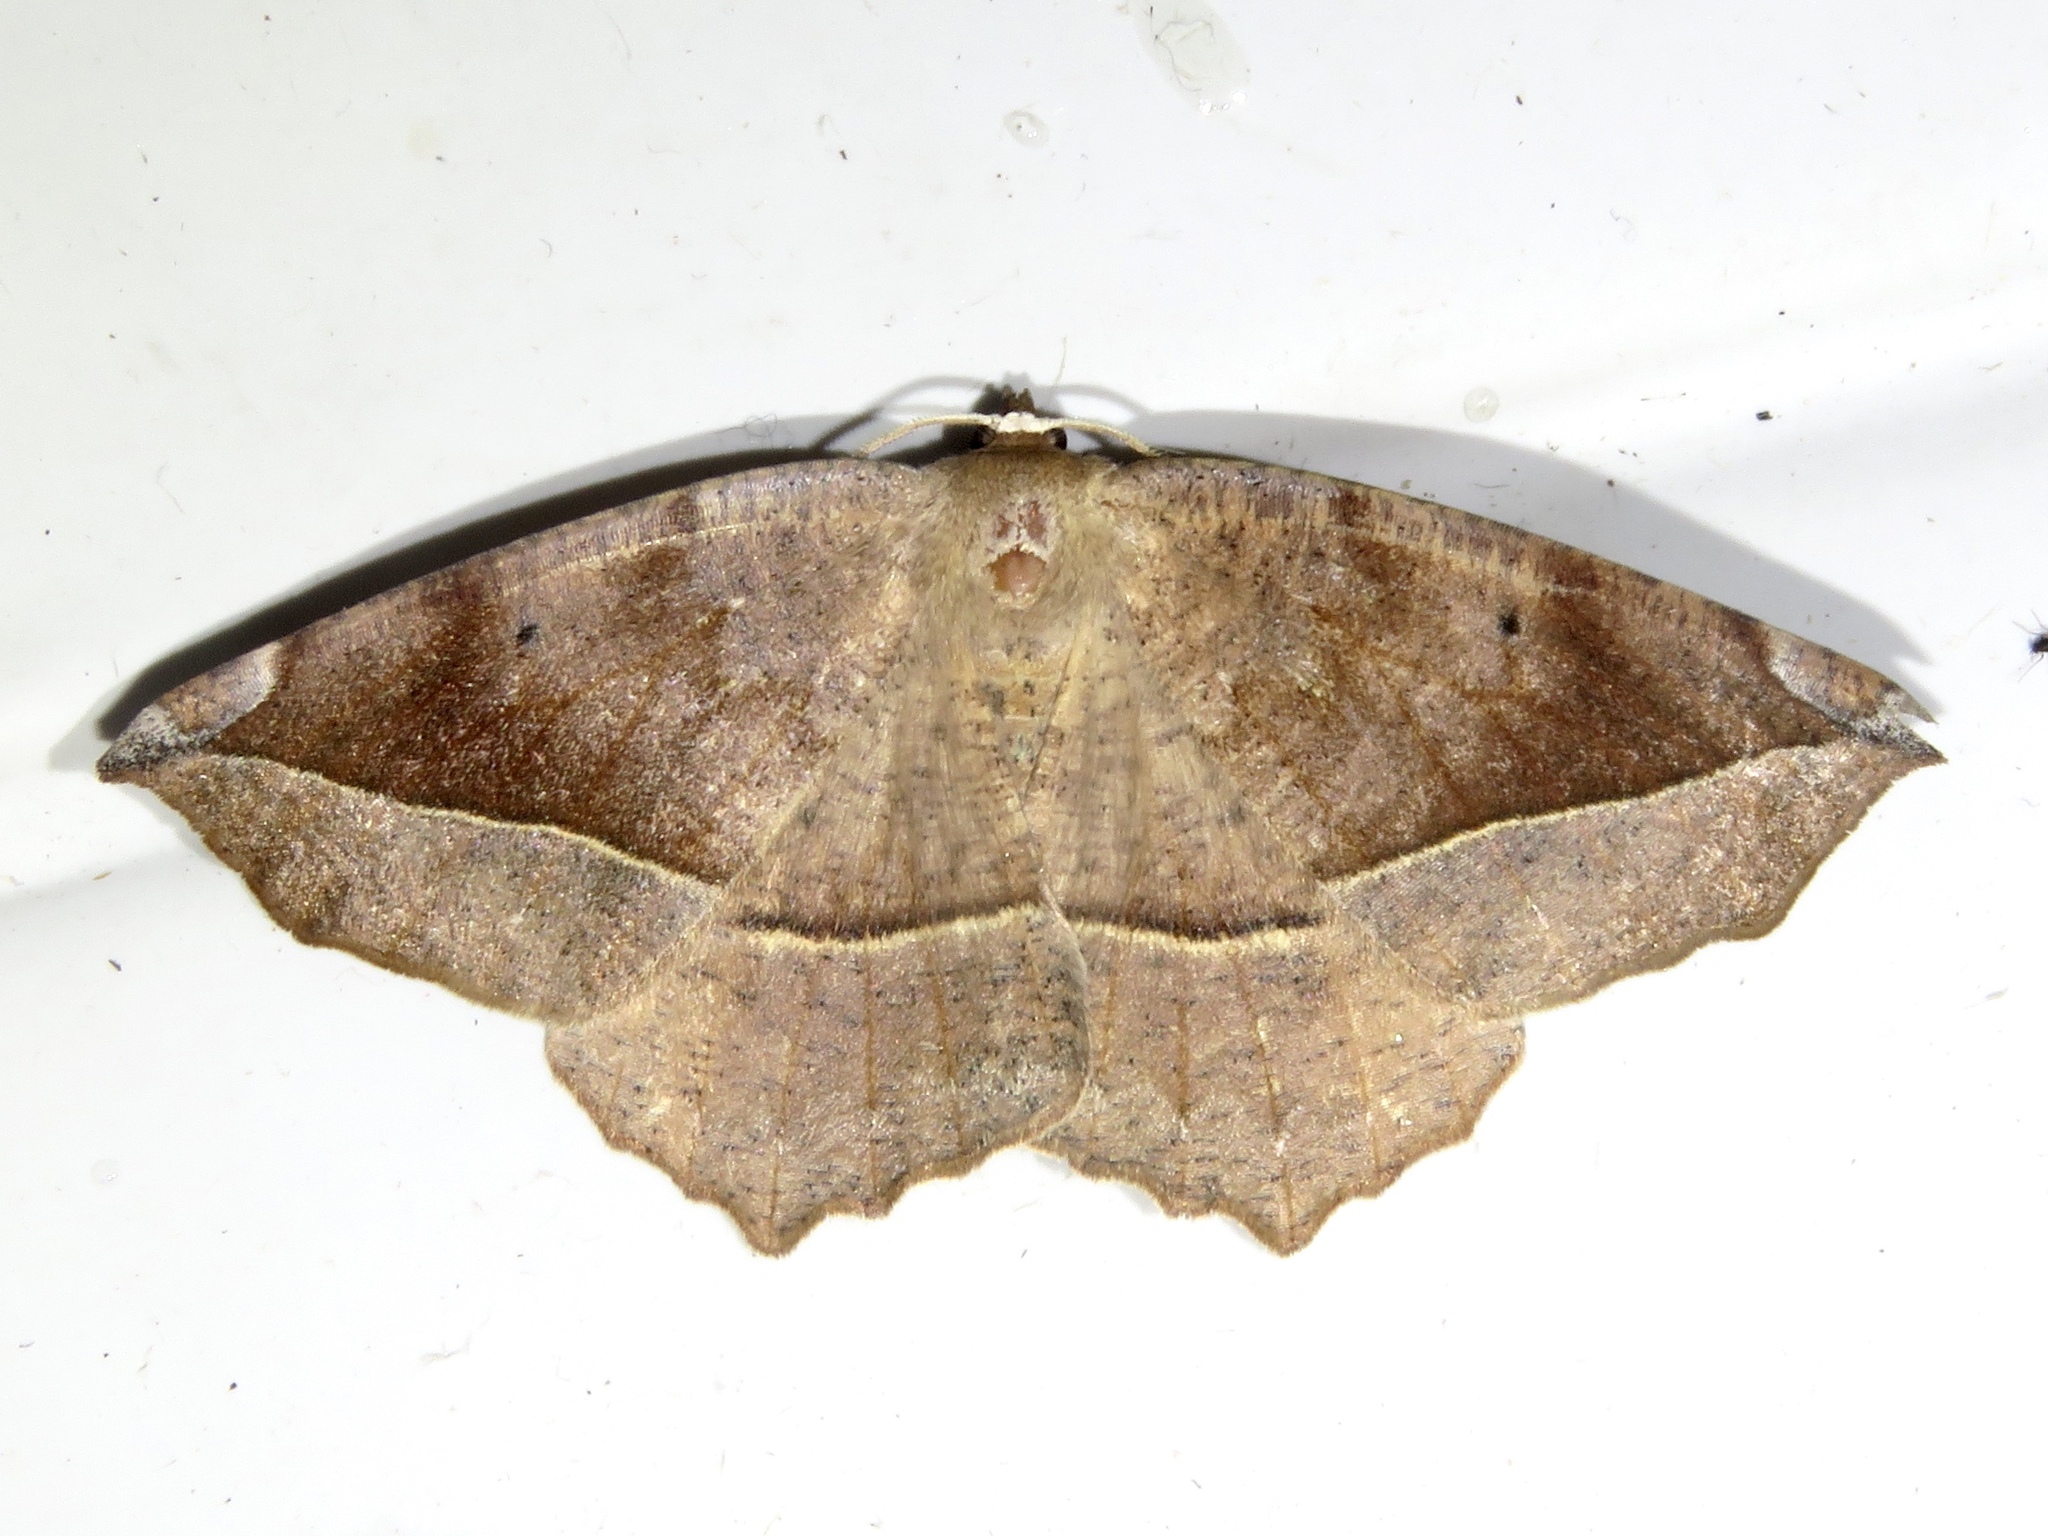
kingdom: Animalia
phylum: Arthropoda
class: Insecta
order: Lepidoptera
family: Geometridae
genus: Eutrapela
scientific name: Eutrapela clemataria
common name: Curved-toothed geometer
